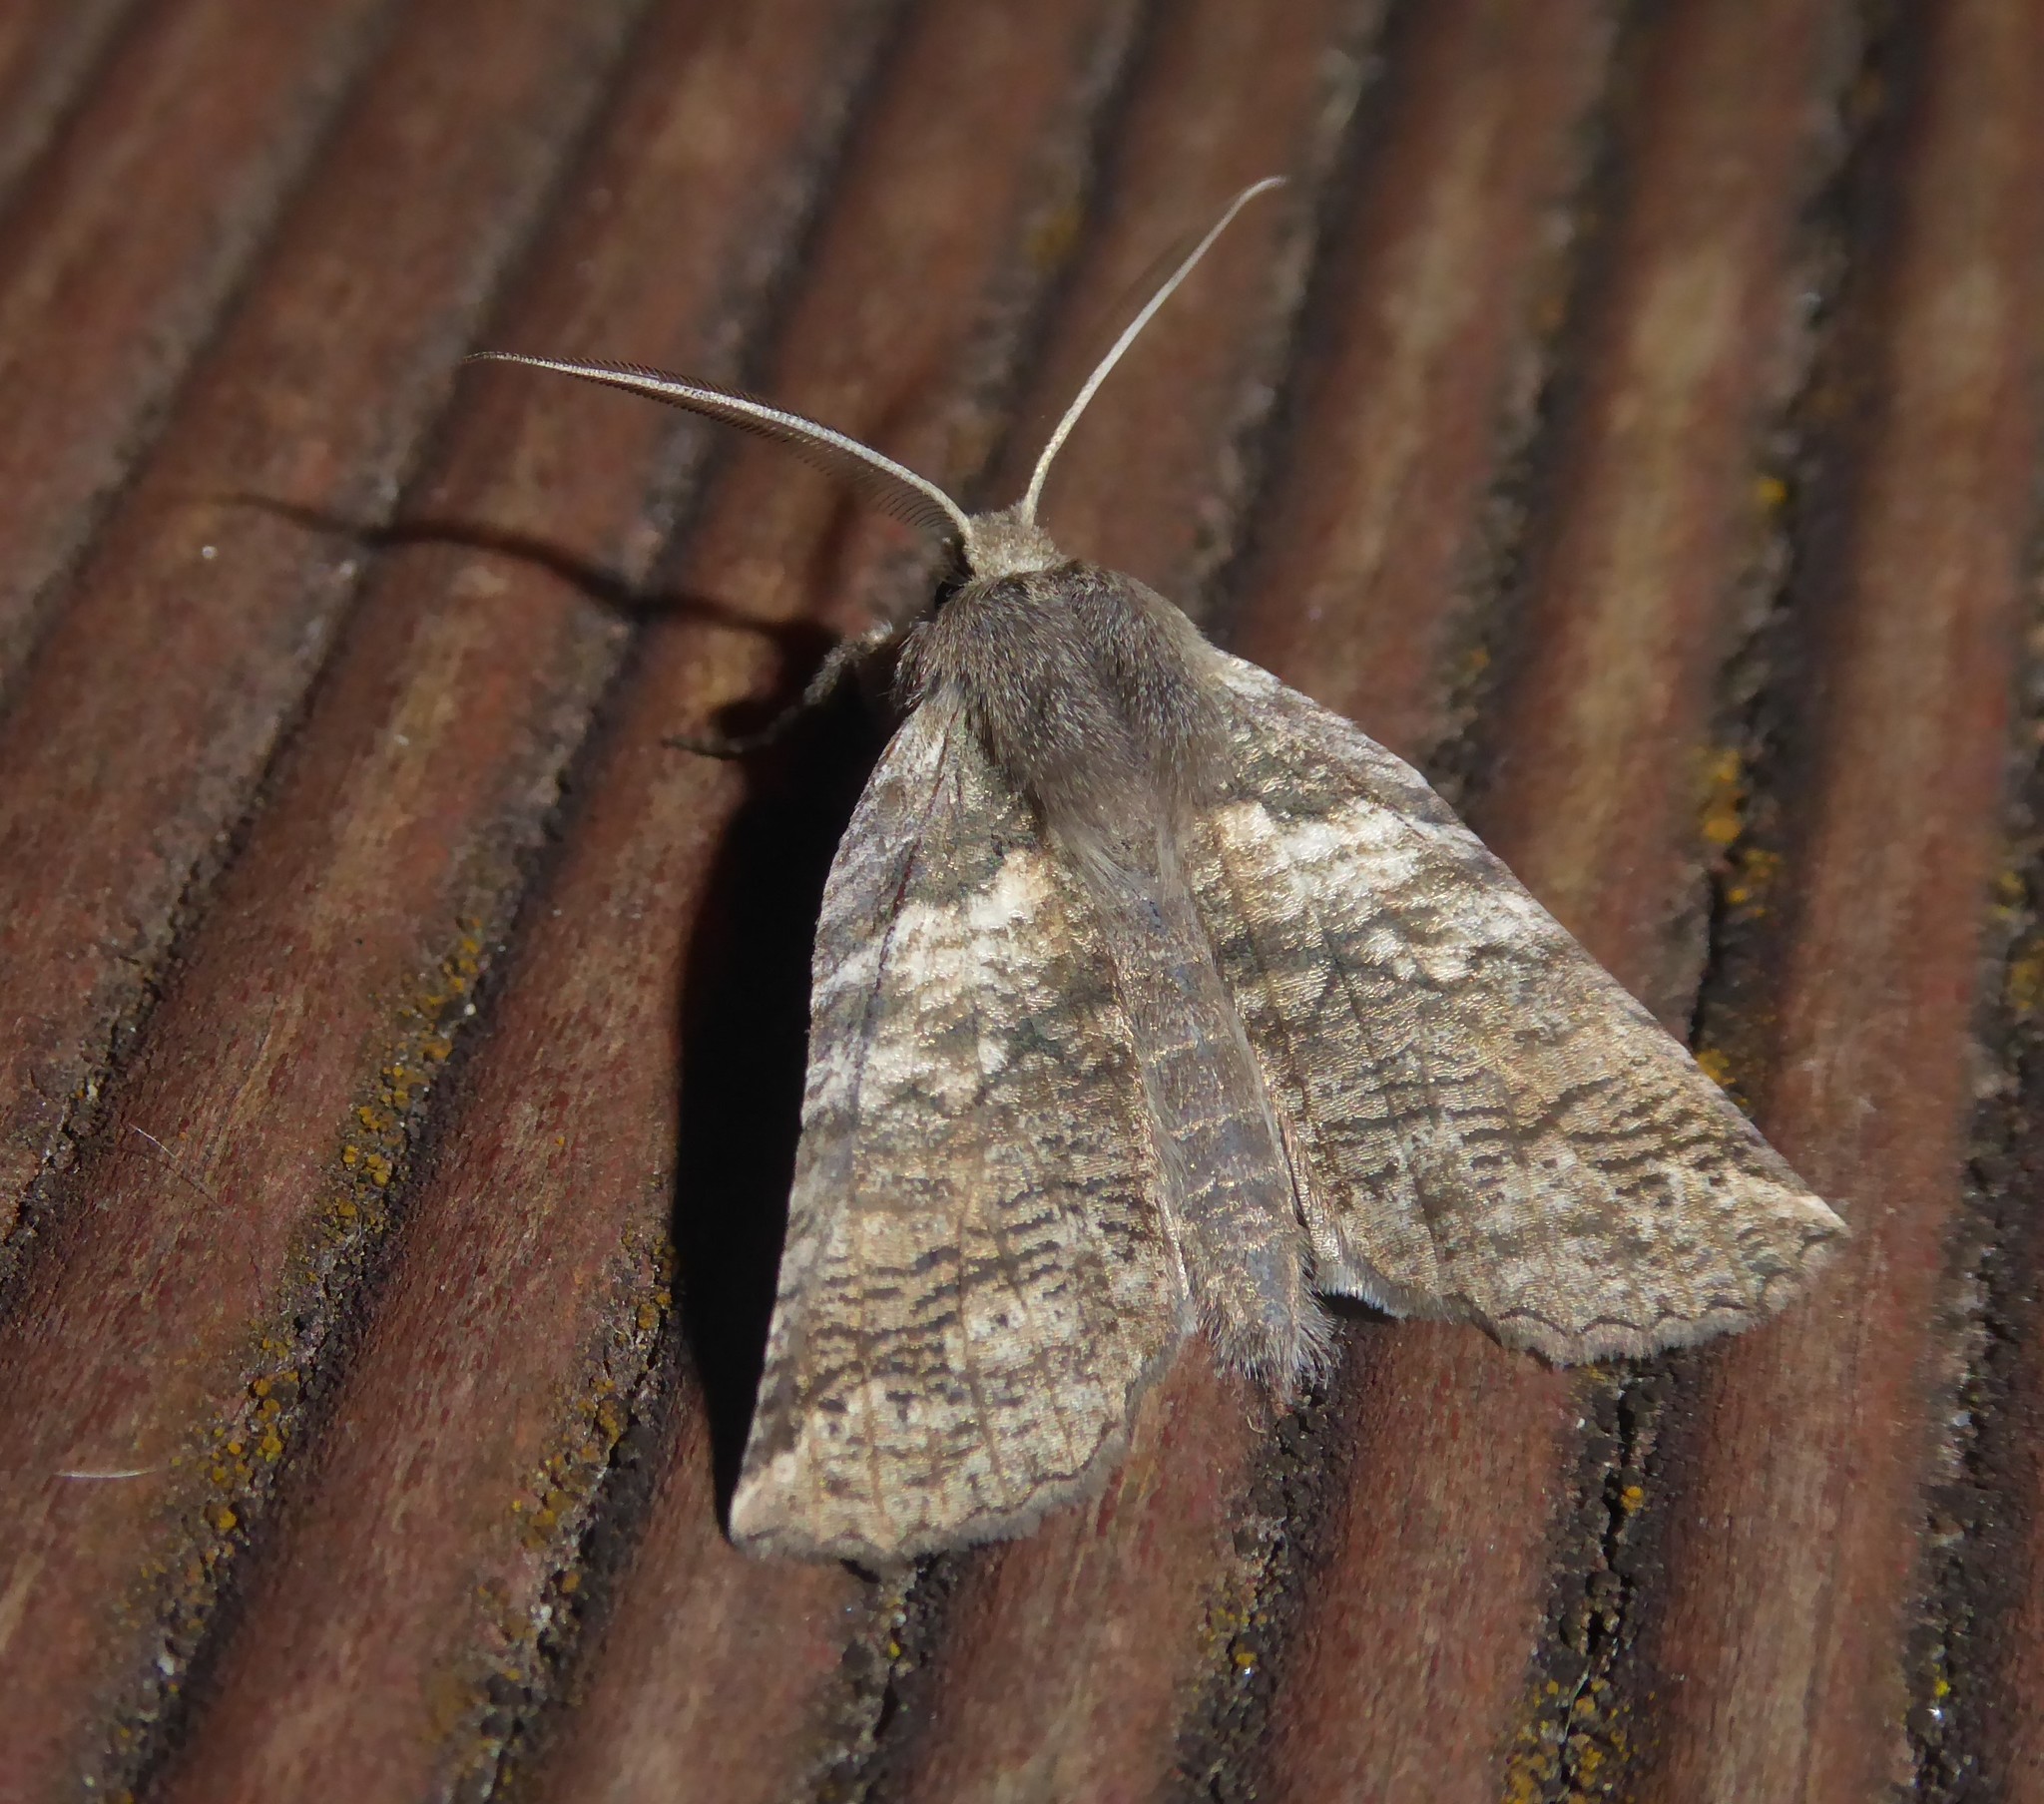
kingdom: Animalia
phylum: Arthropoda
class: Insecta
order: Lepidoptera
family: Geometridae
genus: Declana
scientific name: Declana
